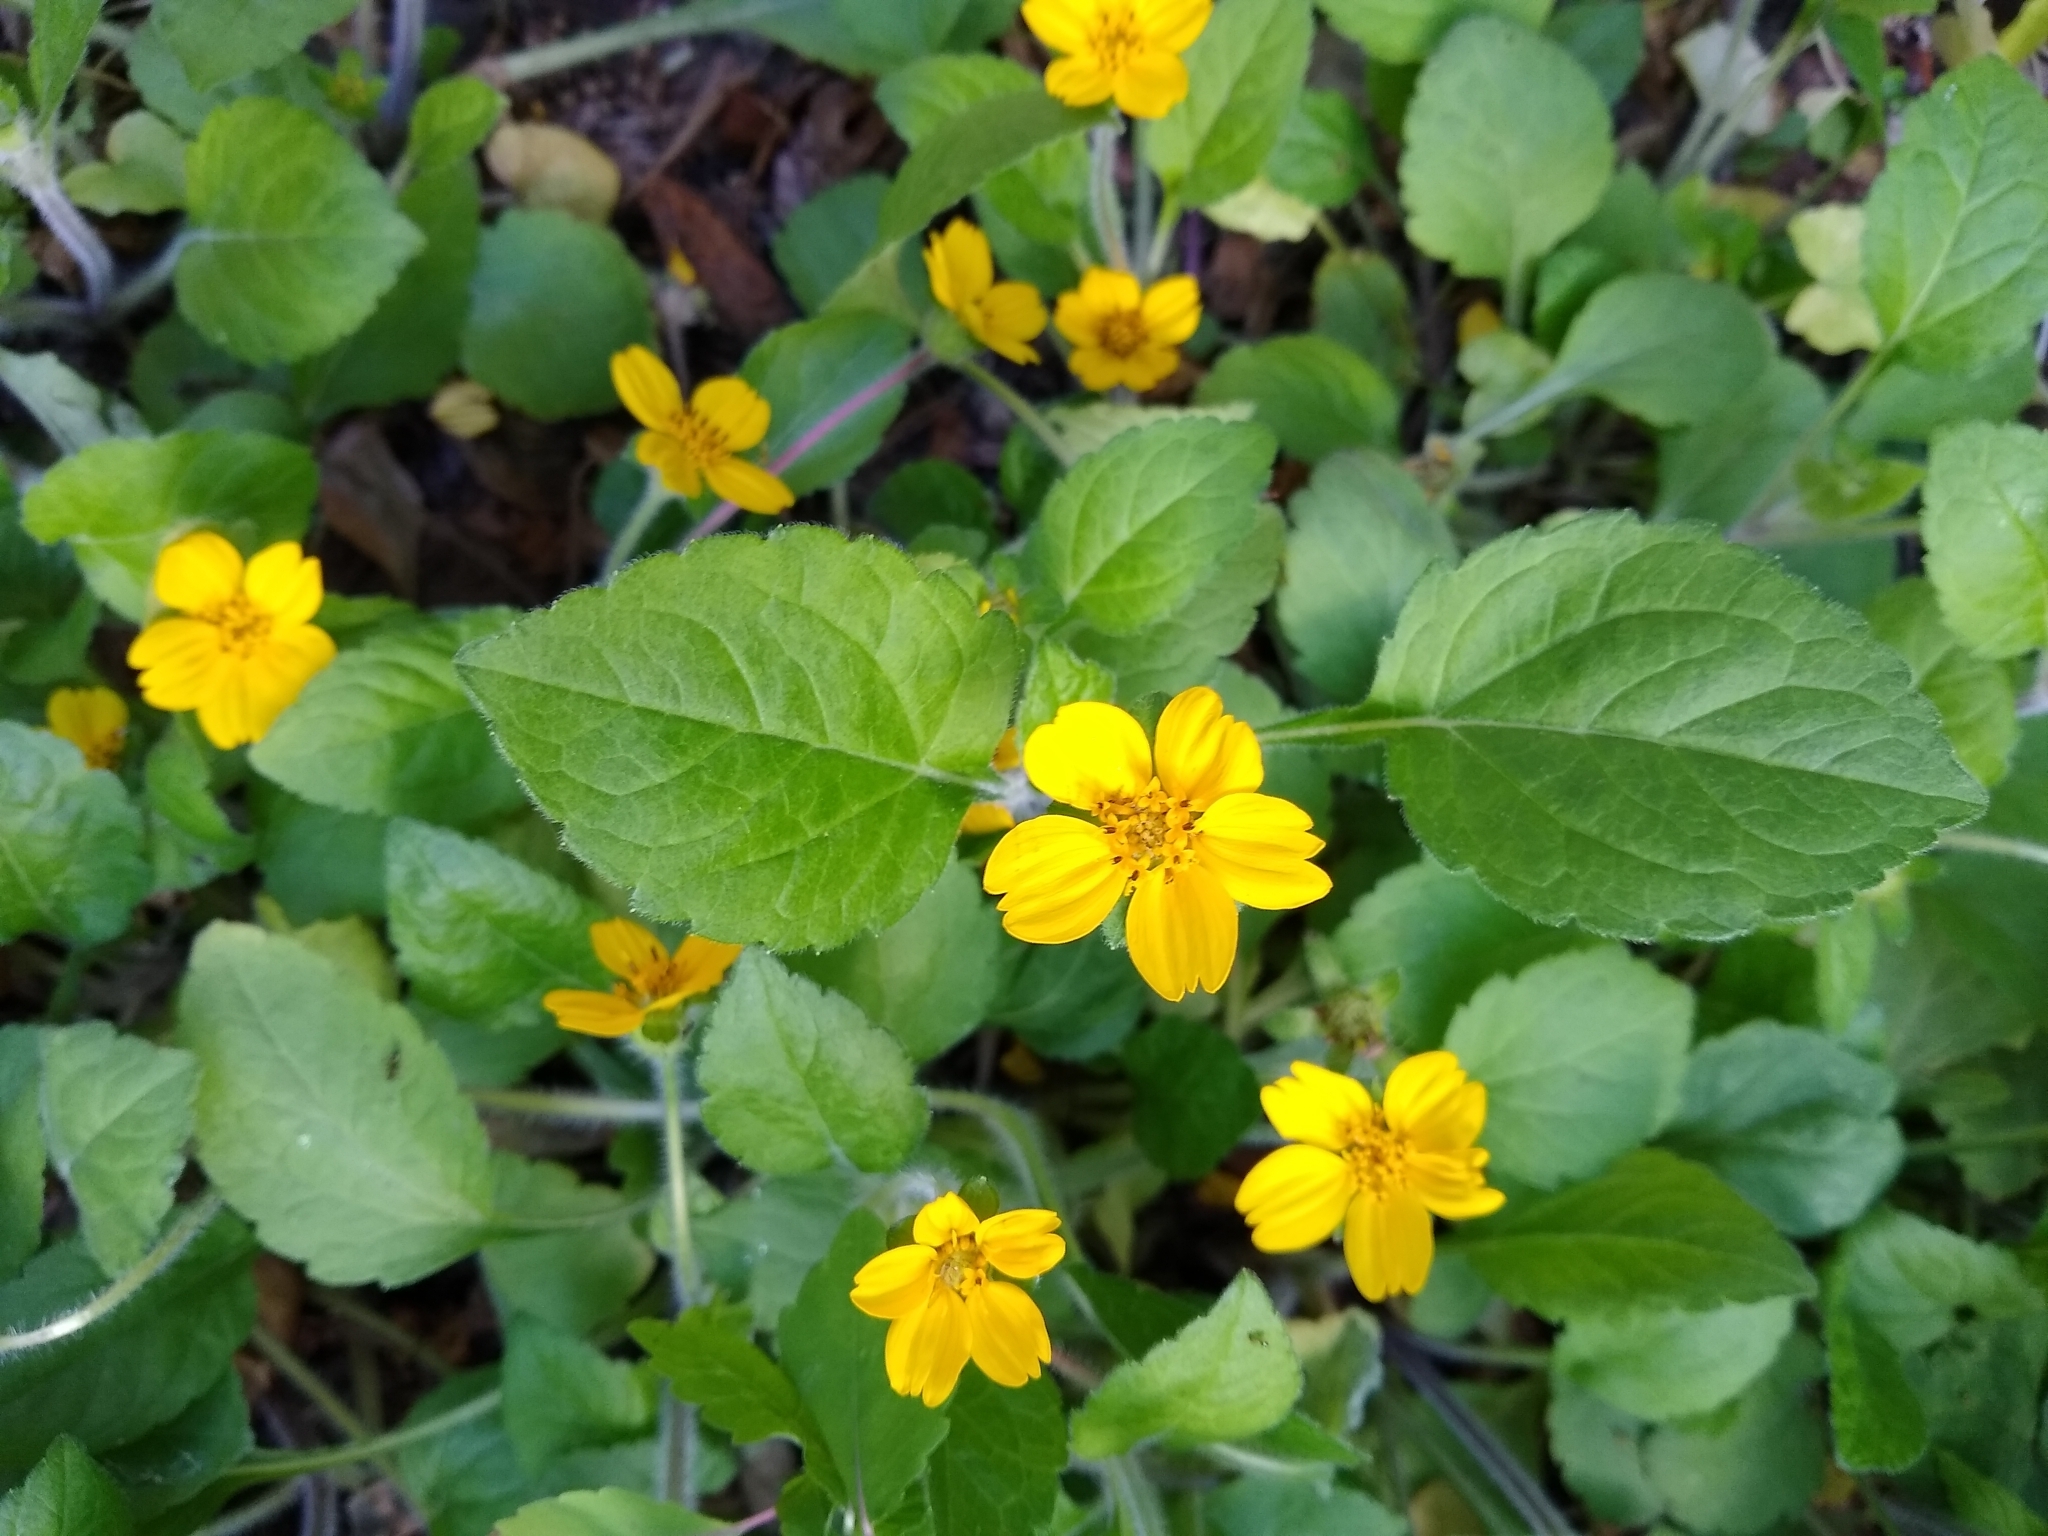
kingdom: Plantae
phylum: Tracheophyta
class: Magnoliopsida
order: Asterales
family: Asteraceae
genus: Chrysogonum
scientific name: Chrysogonum virginianum
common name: Golden-knee
